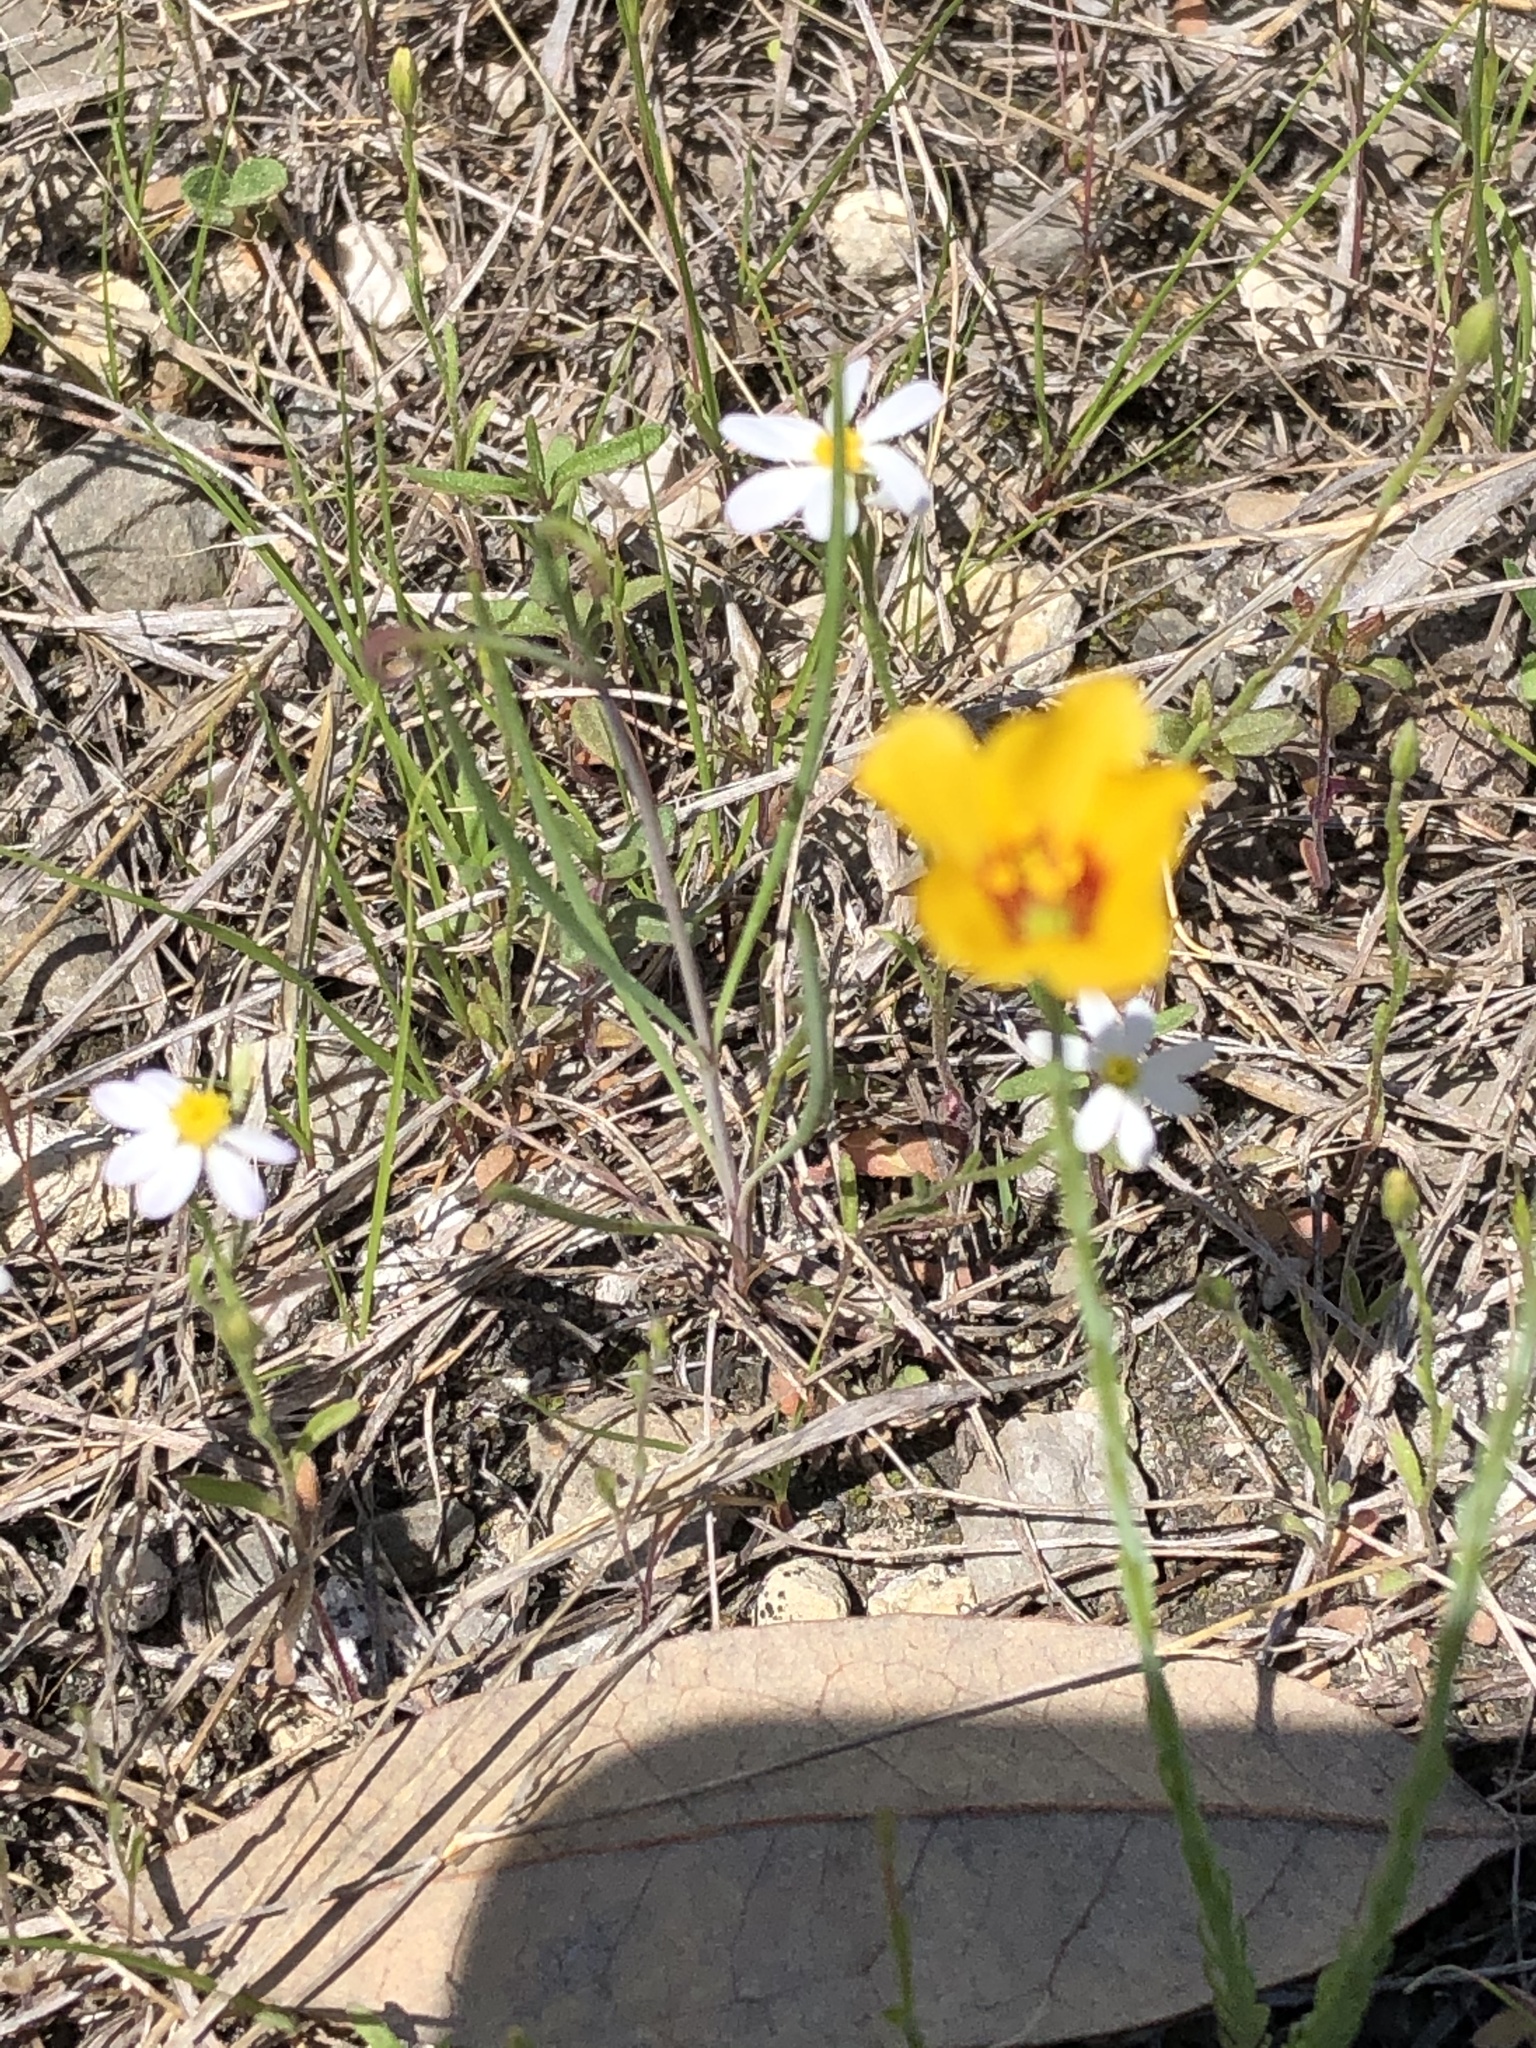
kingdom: Plantae
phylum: Tracheophyta
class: Magnoliopsida
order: Malpighiales
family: Linaceae
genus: Linum
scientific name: Linum hudsonioides
